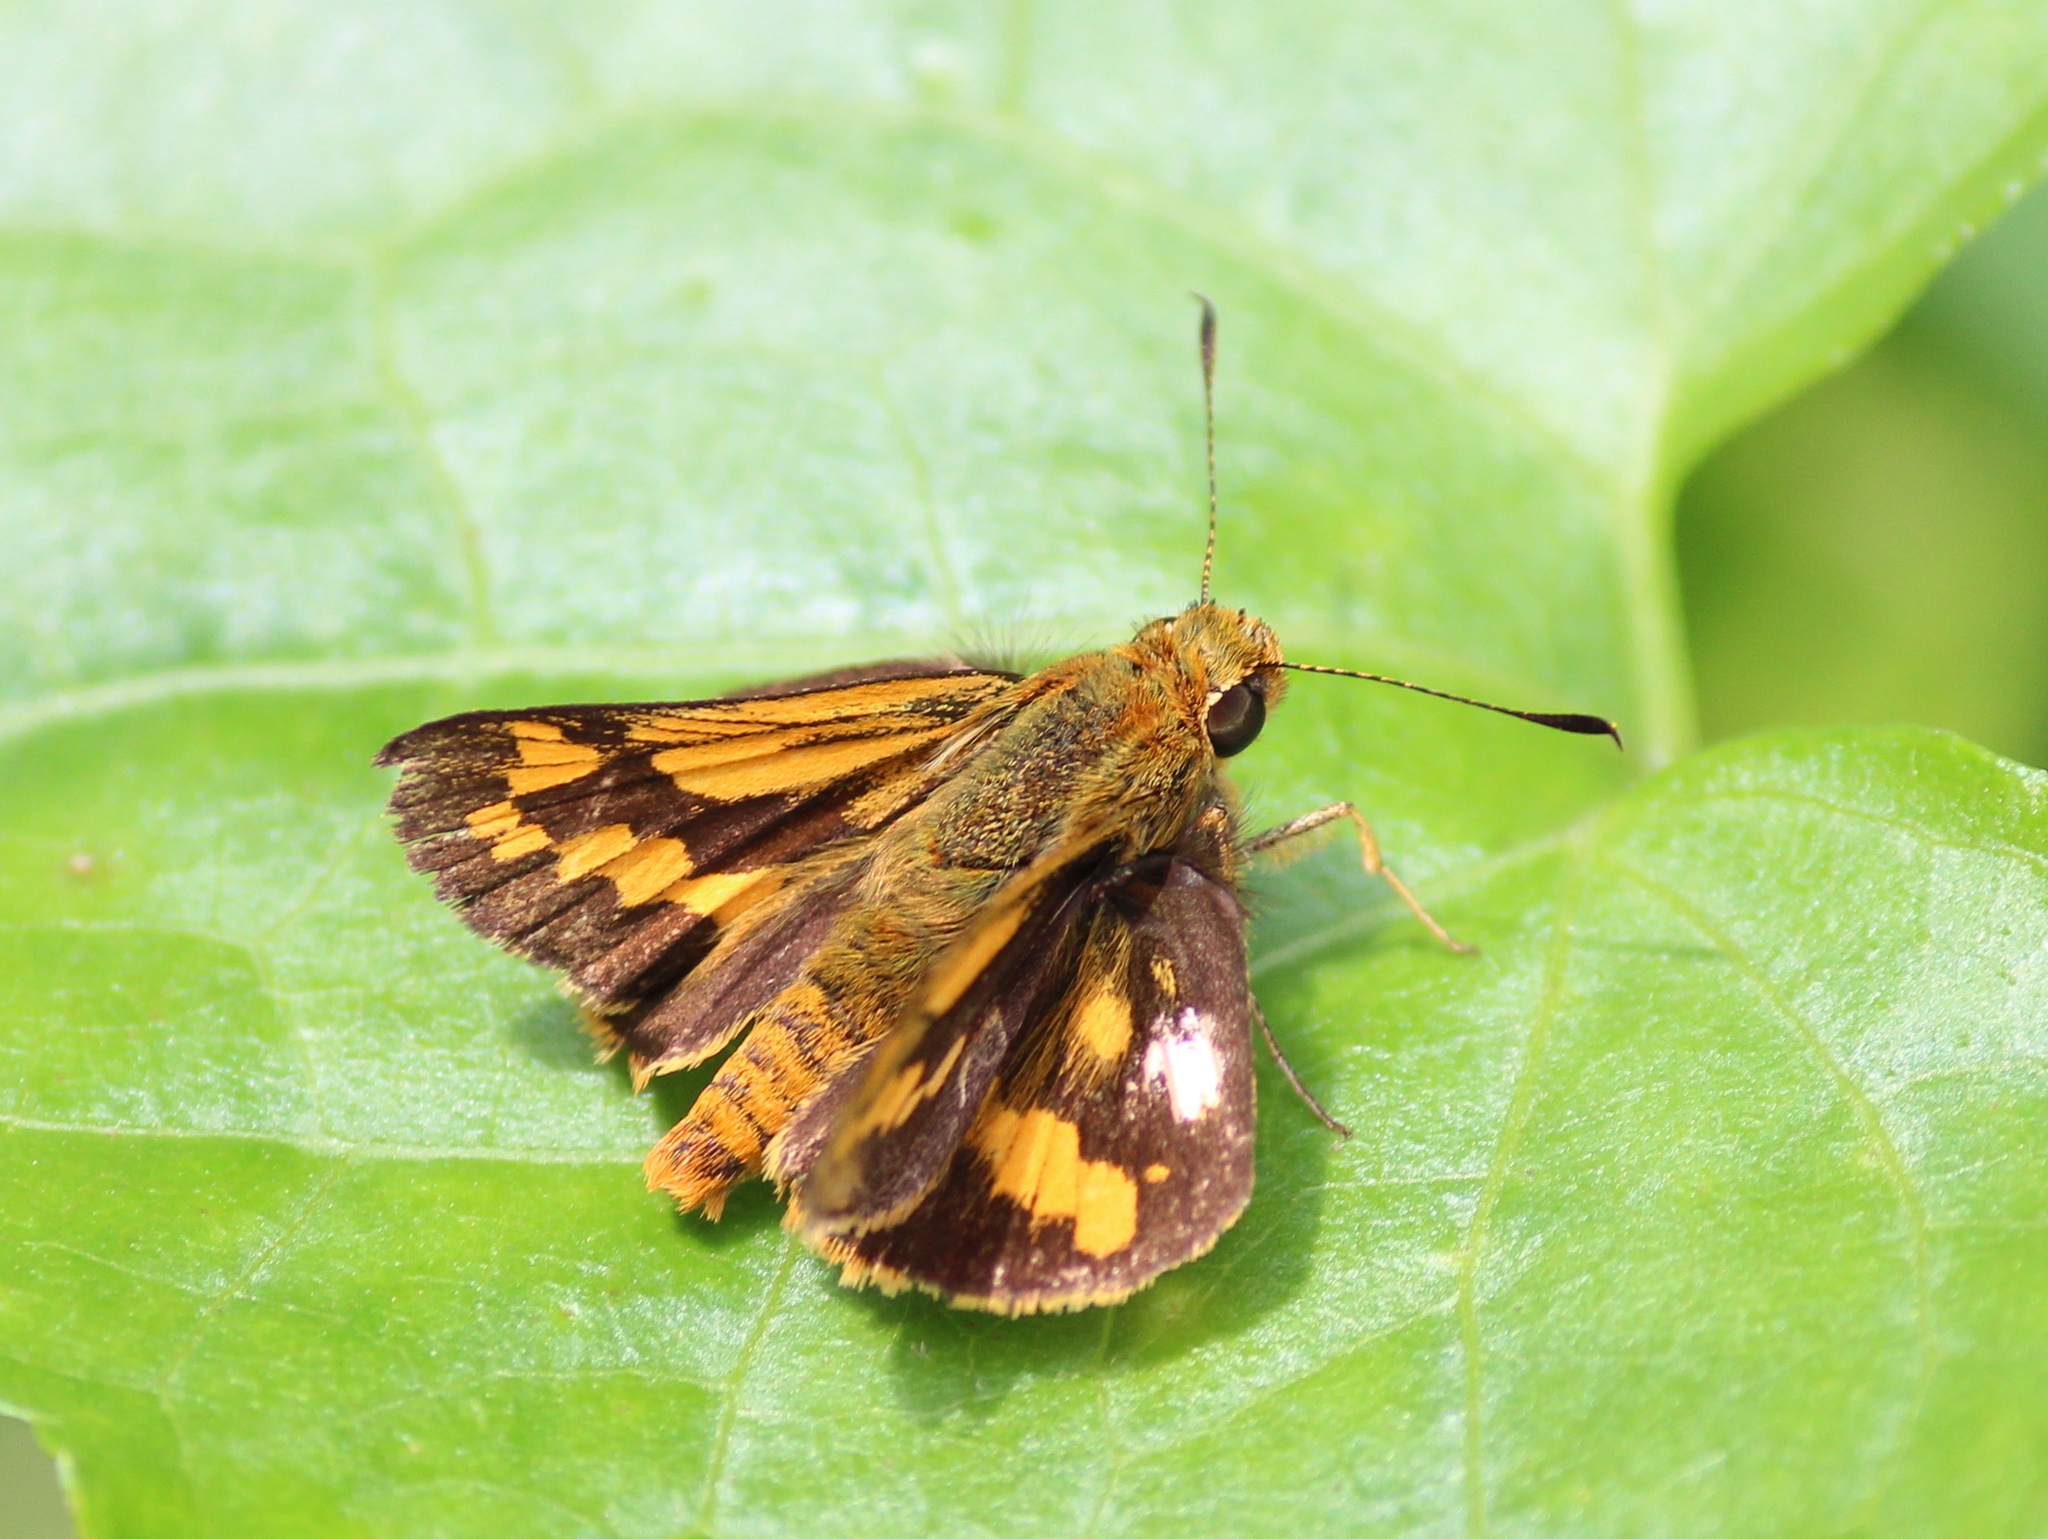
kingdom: Animalia
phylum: Arthropoda
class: Insecta
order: Lepidoptera
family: Hesperiidae
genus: Potanthus
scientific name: Potanthus pseudomaesa
